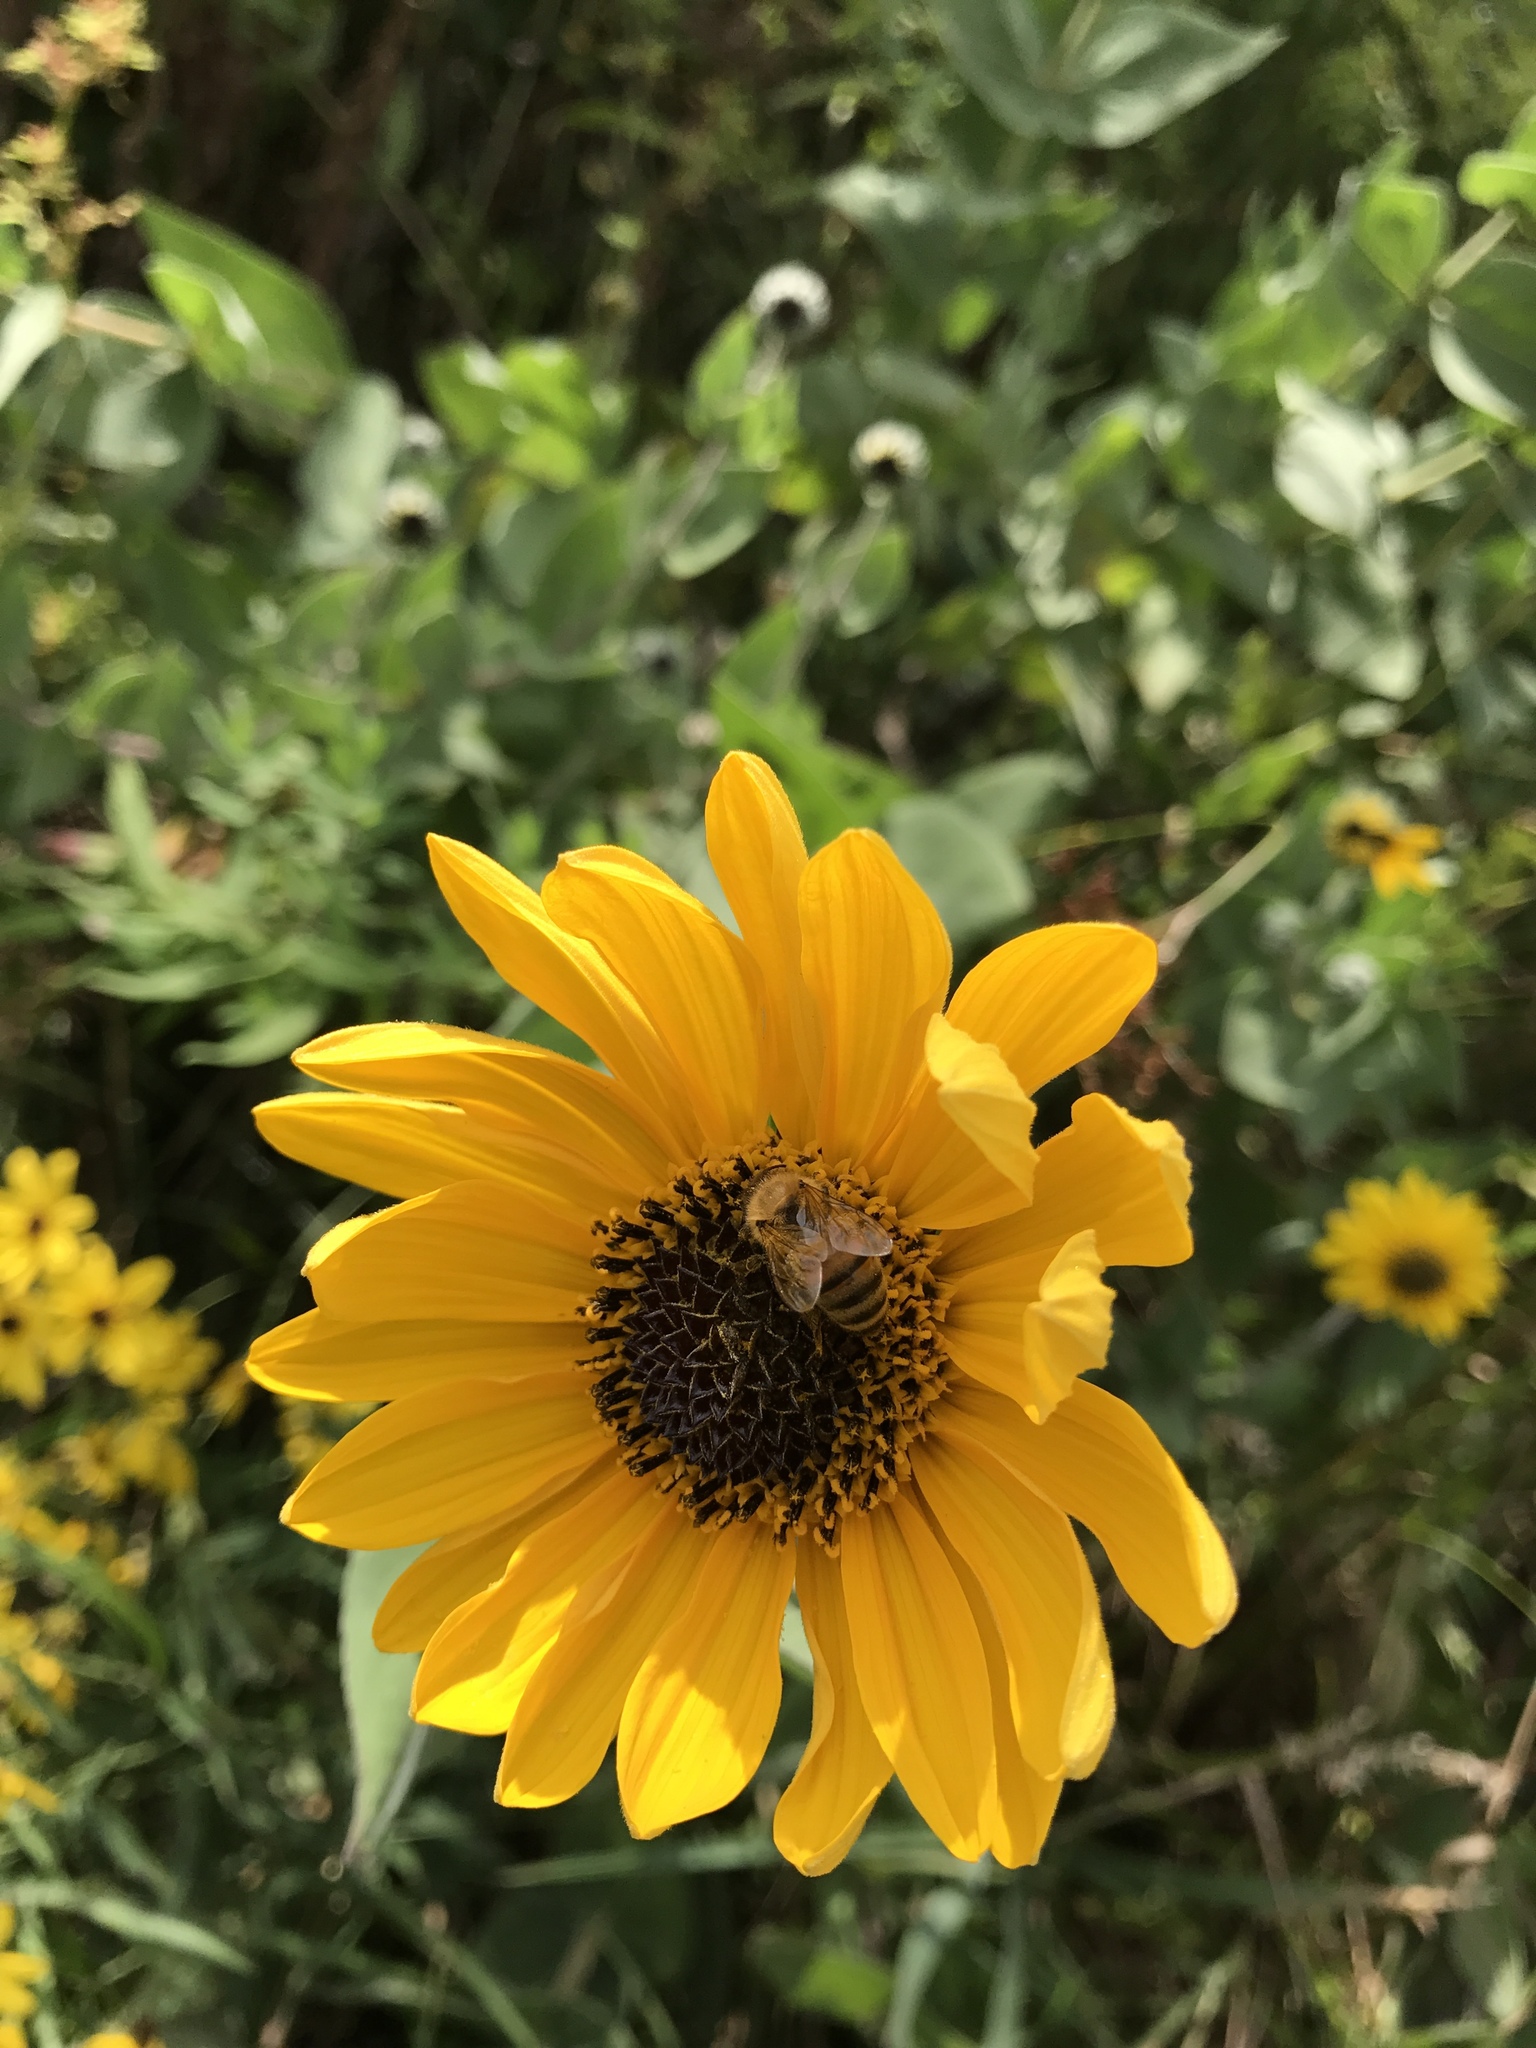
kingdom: Animalia
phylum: Arthropoda
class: Insecta
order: Hymenoptera
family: Apidae
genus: Apis
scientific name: Apis mellifera
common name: Honey bee
